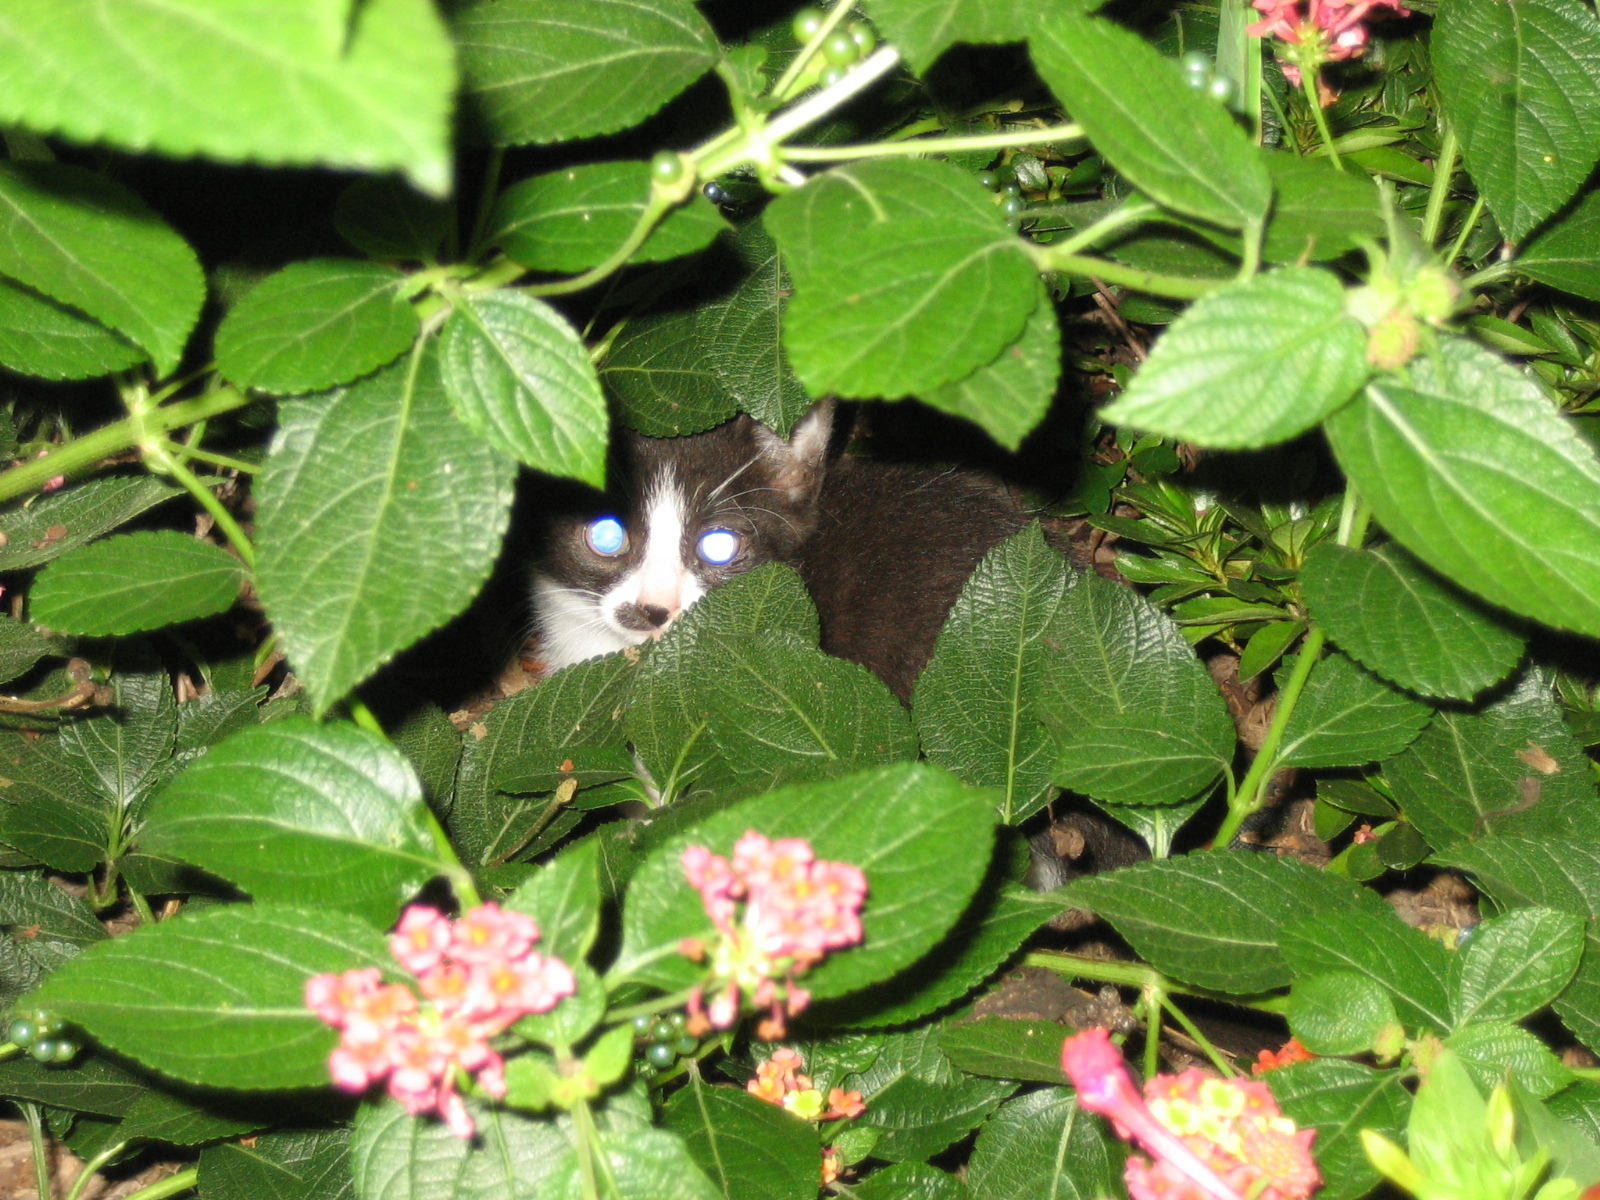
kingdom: Animalia
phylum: Chordata
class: Mammalia
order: Carnivora
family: Felidae
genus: Felis
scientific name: Felis catus
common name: Domestic cat
